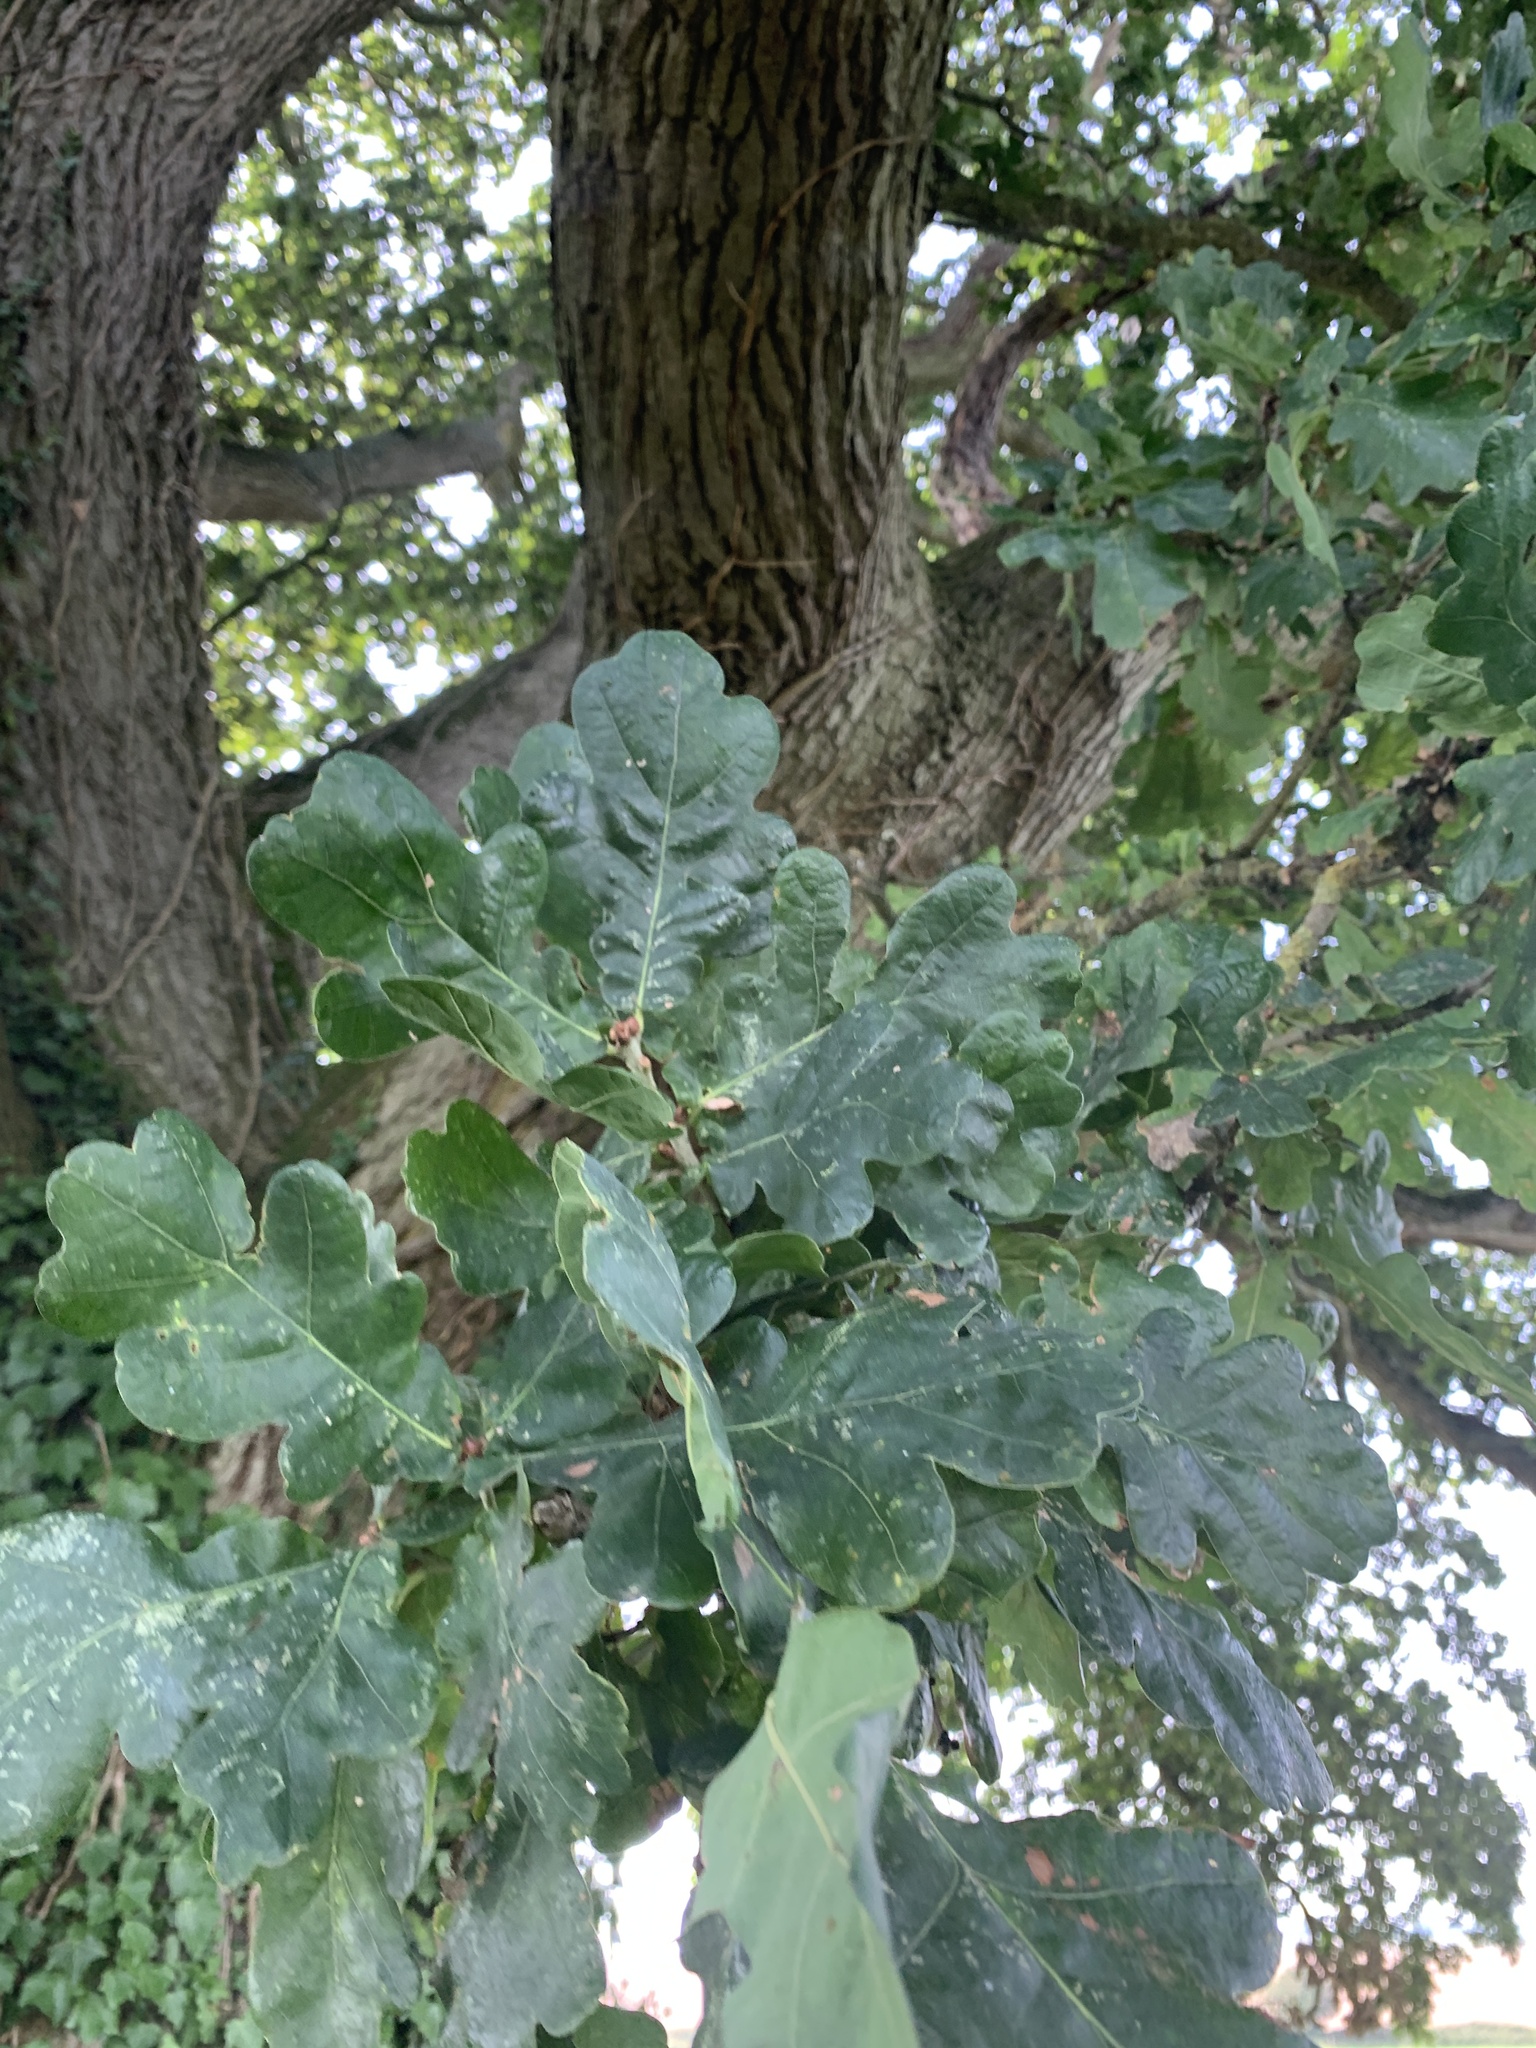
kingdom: Plantae
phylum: Tracheophyta
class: Magnoliopsida
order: Fagales
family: Fagaceae
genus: Quercus
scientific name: Quercus robur
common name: Pedunculate oak
